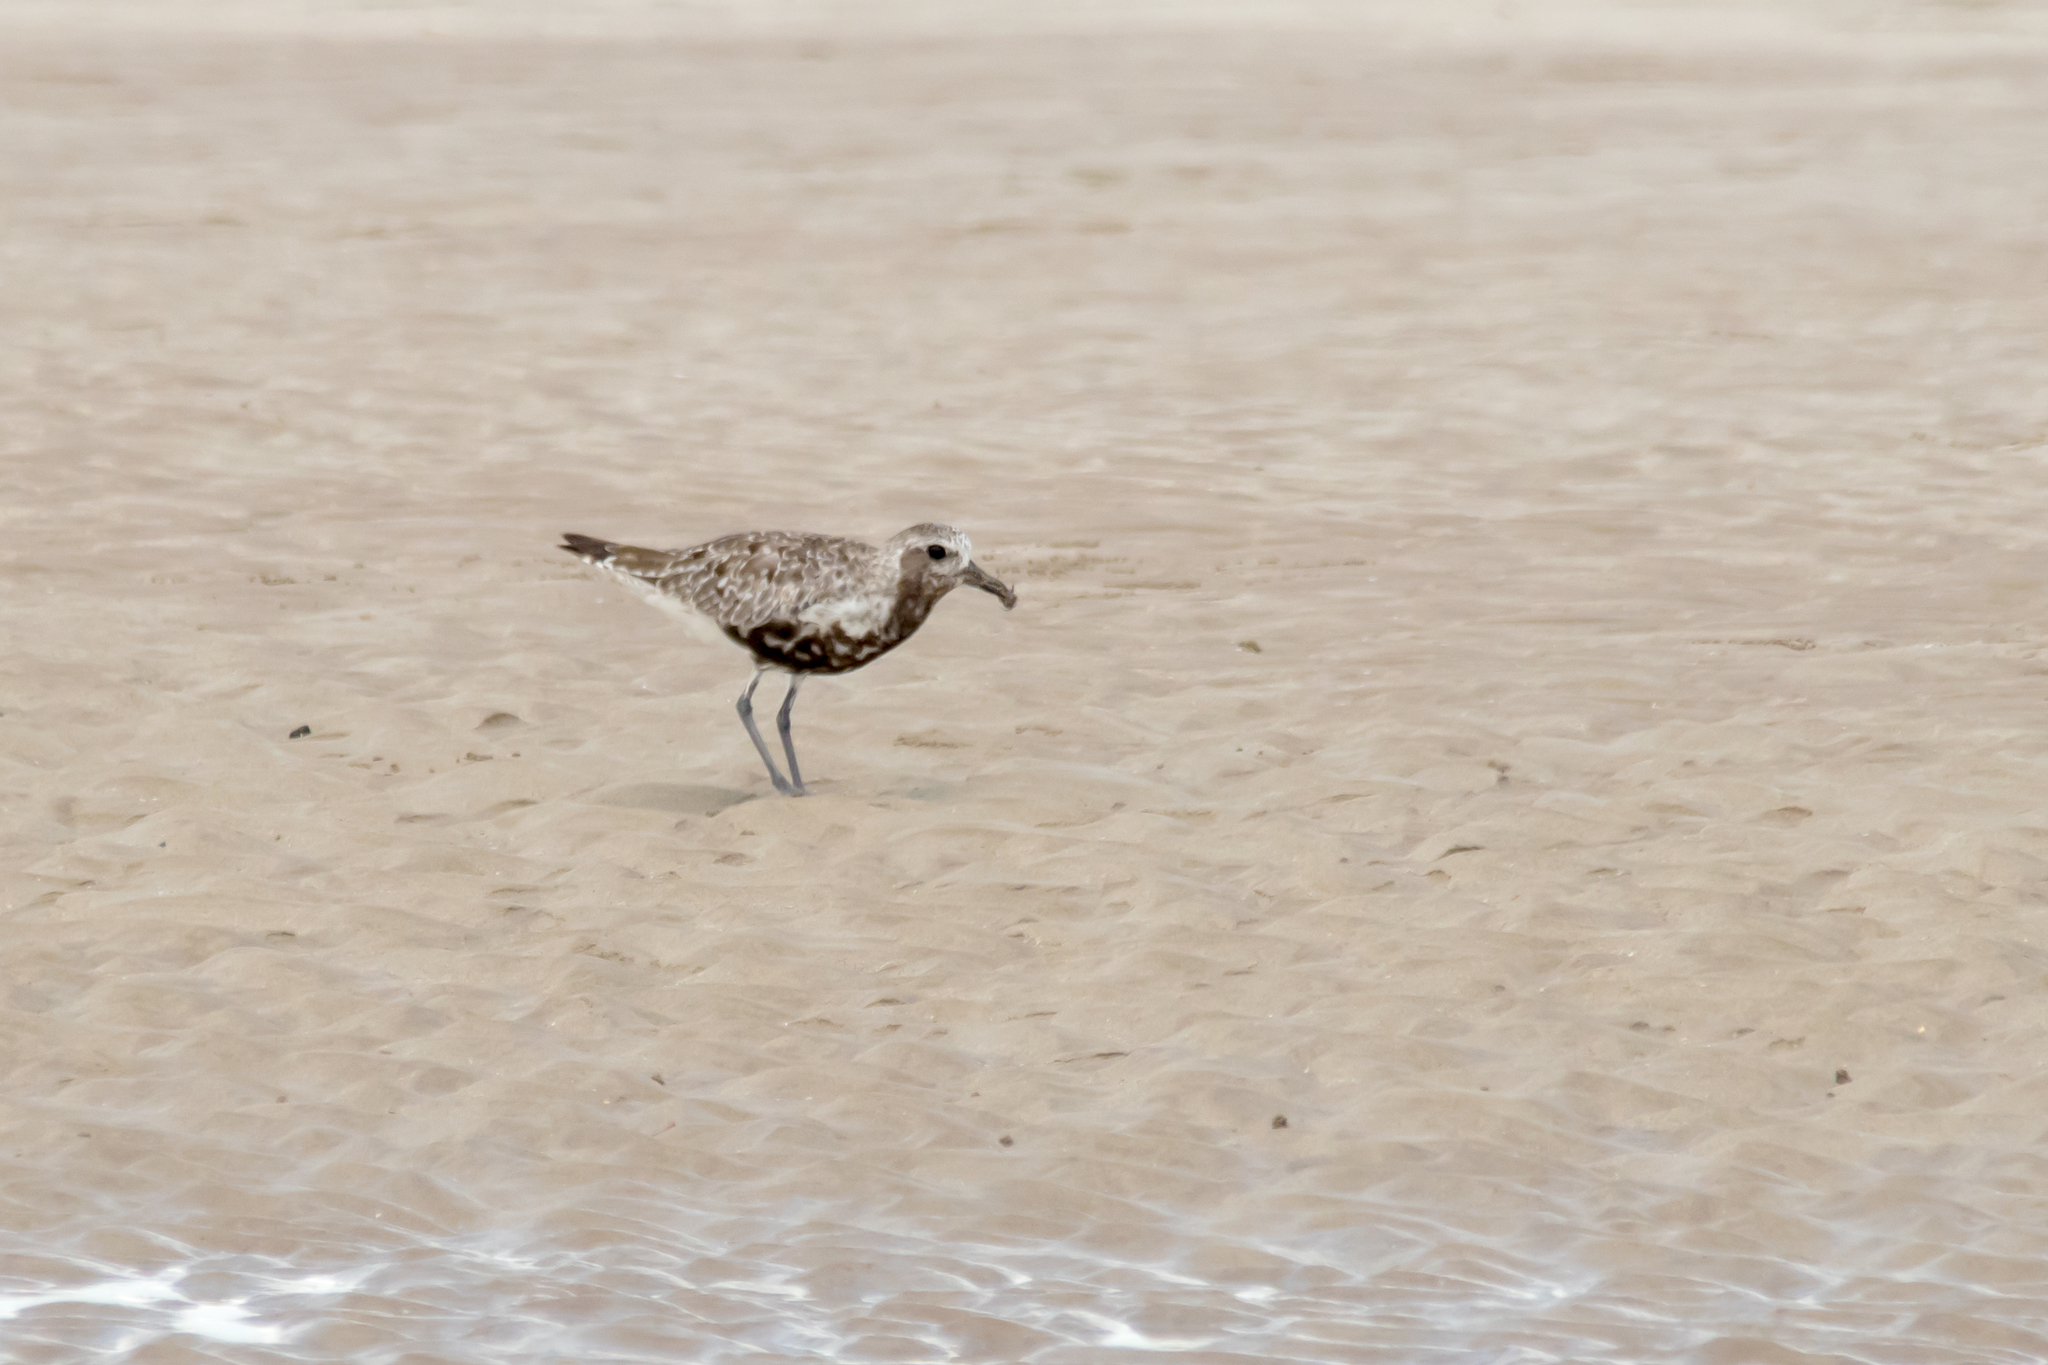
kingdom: Animalia
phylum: Chordata
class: Aves
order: Charadriiformes
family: Charadriidae
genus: Pluvialis
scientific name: Pluvialis squatarola
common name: Grey plover
